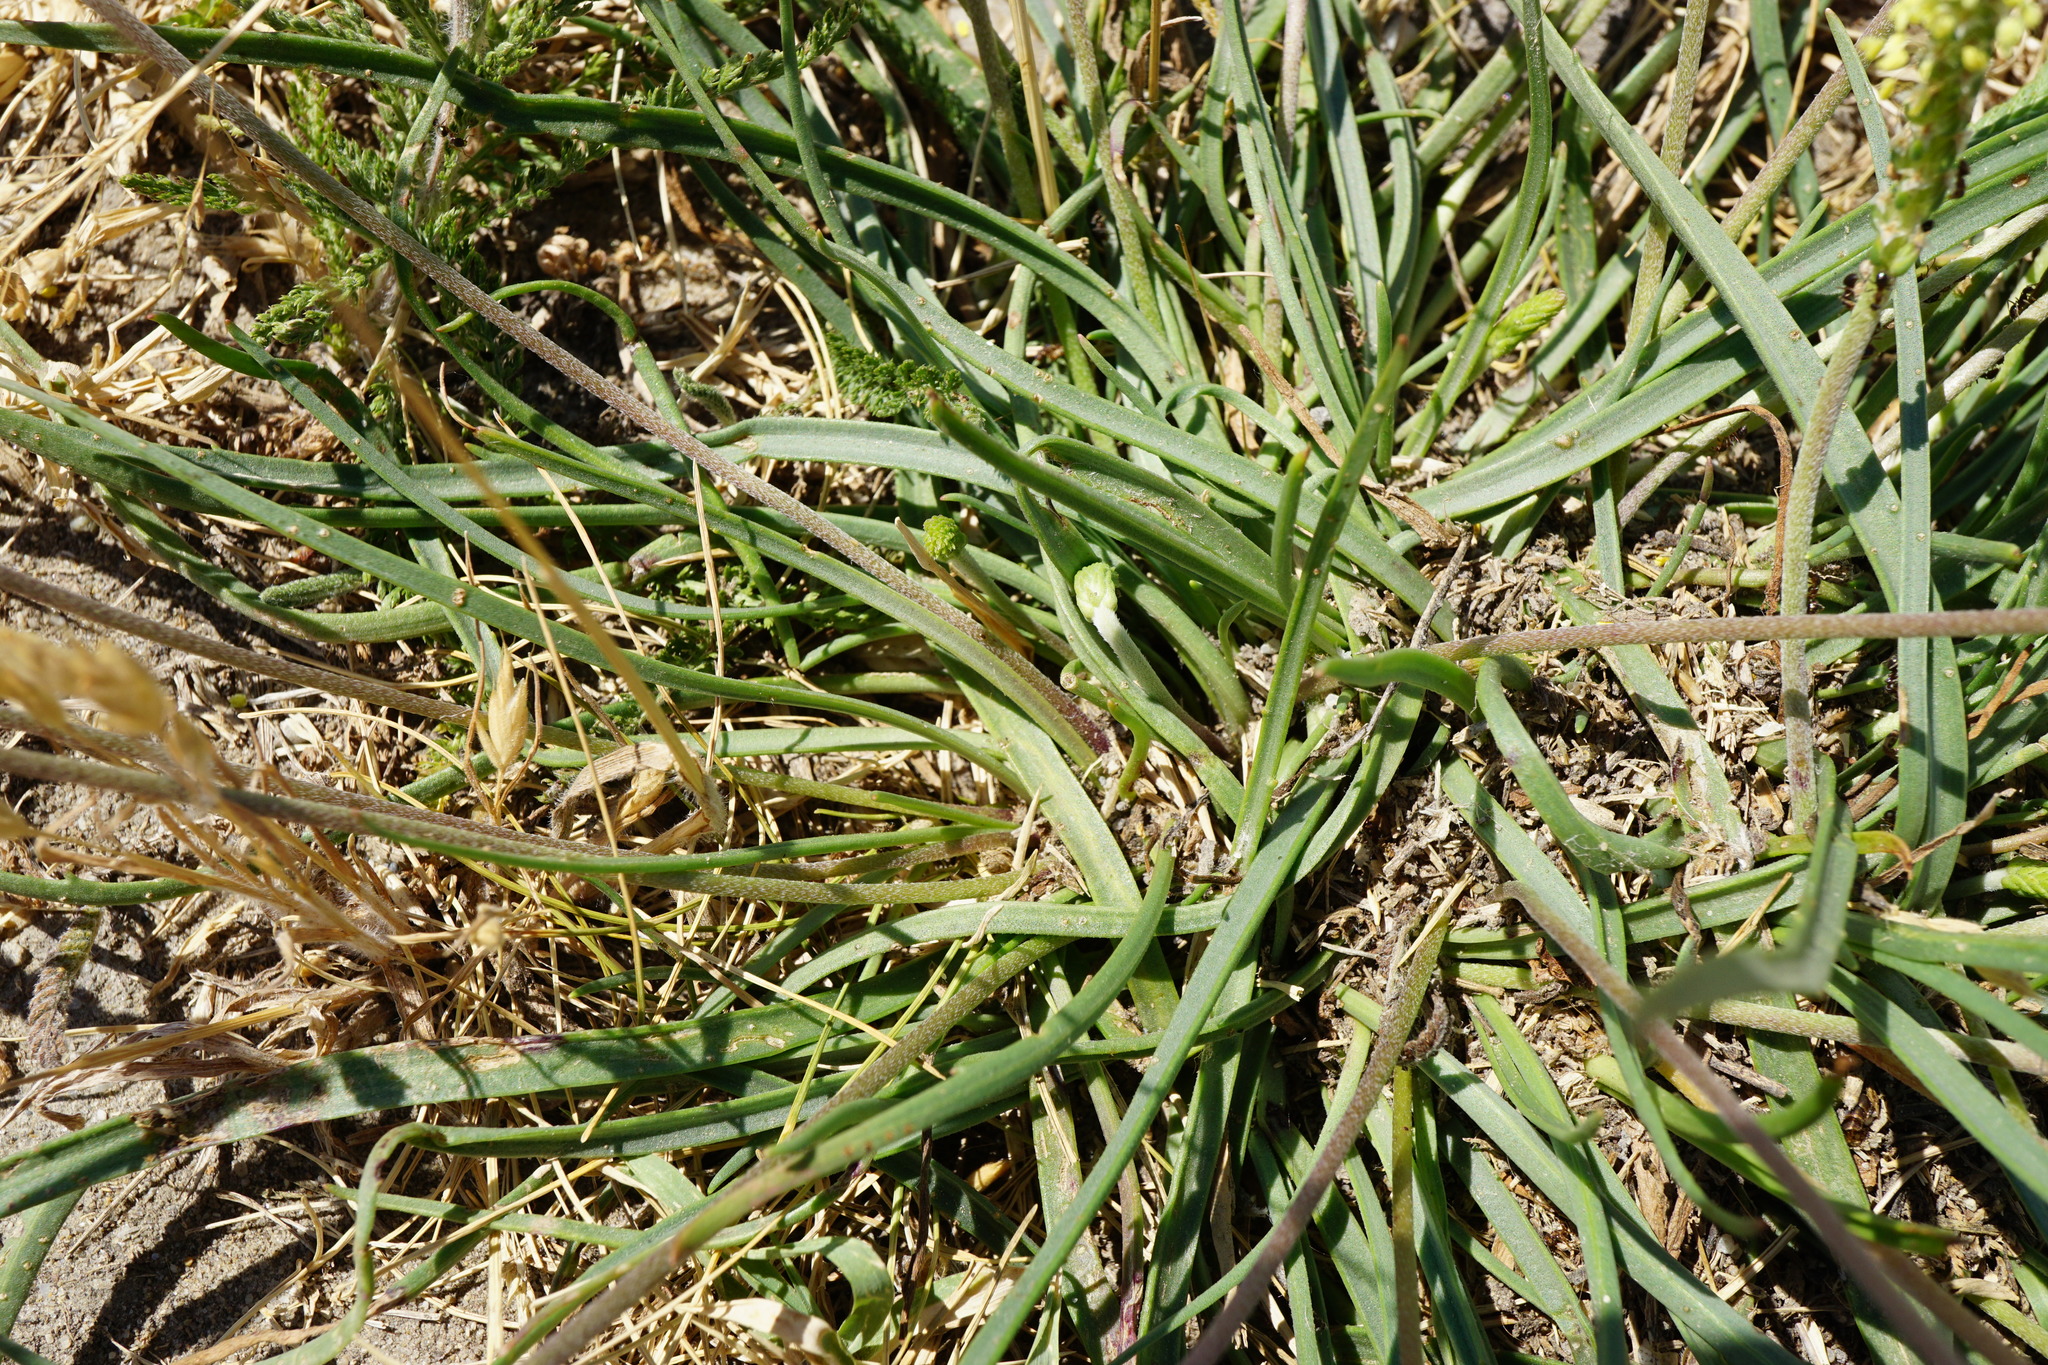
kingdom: Plantae
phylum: Tracheophyta
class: Magnoliopsida
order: Lamiales
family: Plantaginaceae
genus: Plantago
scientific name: Plantago maritima
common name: Sea plantain
